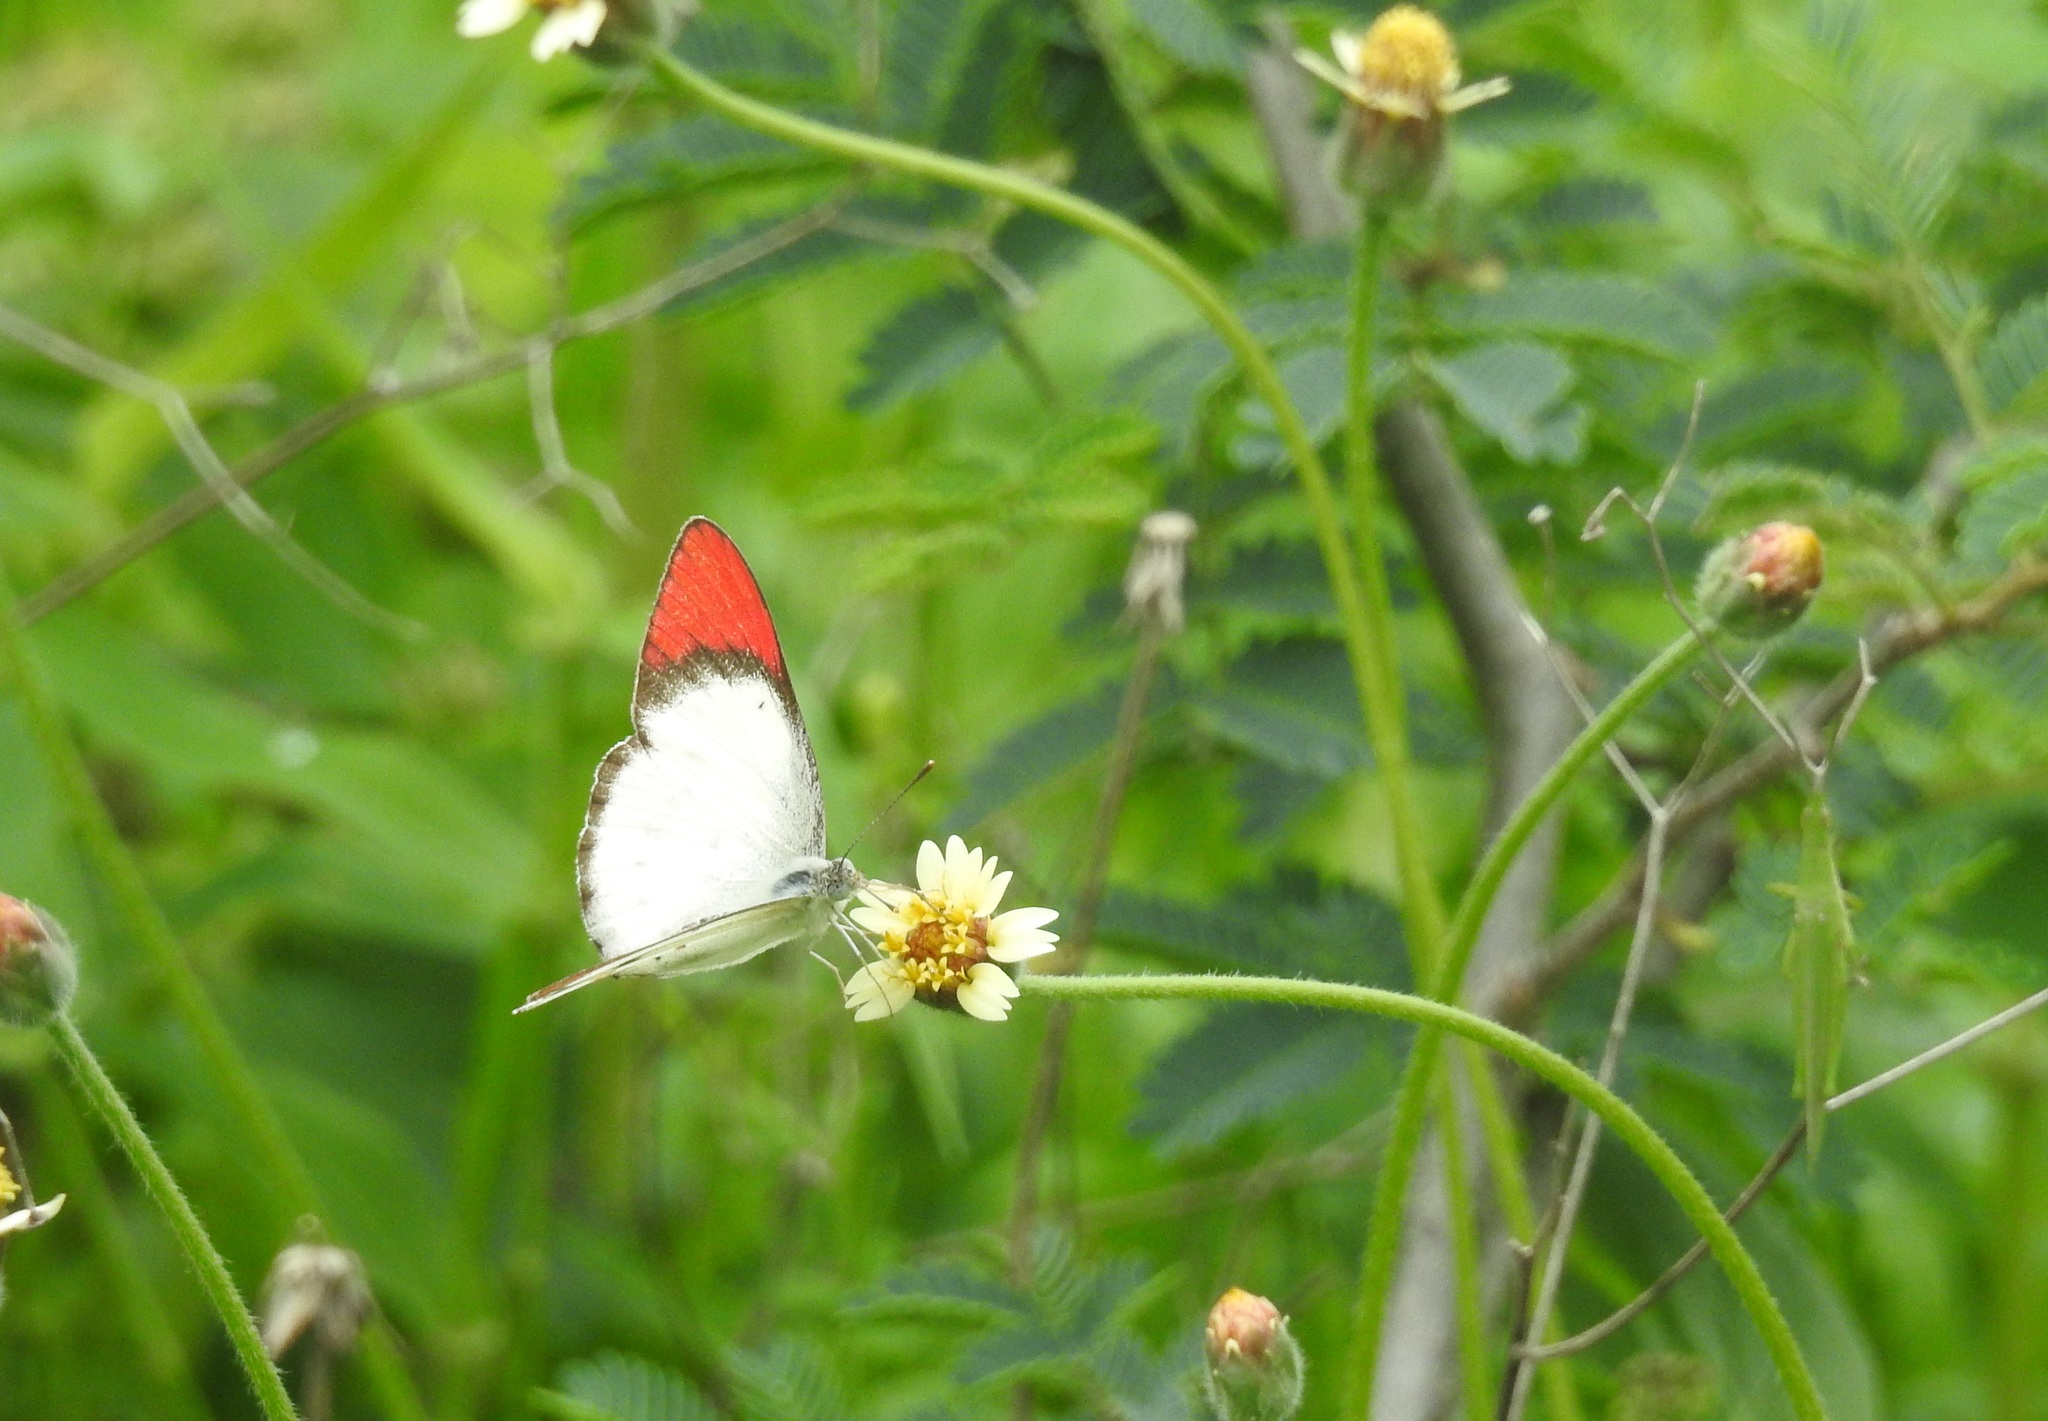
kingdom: Animalia
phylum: Arthropoda
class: Insecta
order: Lepidoptera
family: Pieridae
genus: Colotis
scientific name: Colotis danae
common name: Crimson tip
